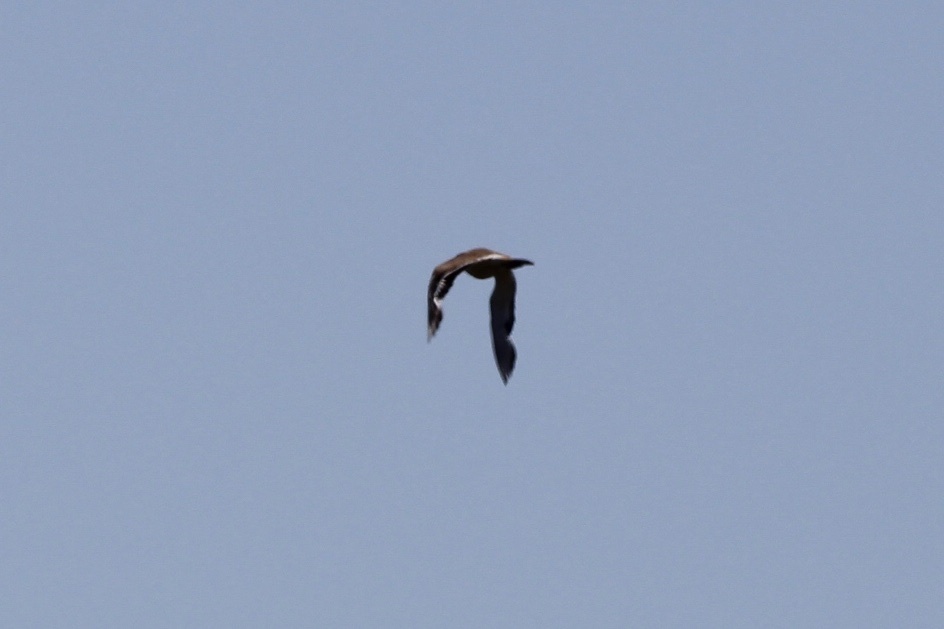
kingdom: Animalia
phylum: Chordata
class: Aves
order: Charadriiformes
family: Charadriidae
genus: Charadrius
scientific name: Charadrius vociferus
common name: Killdeer
